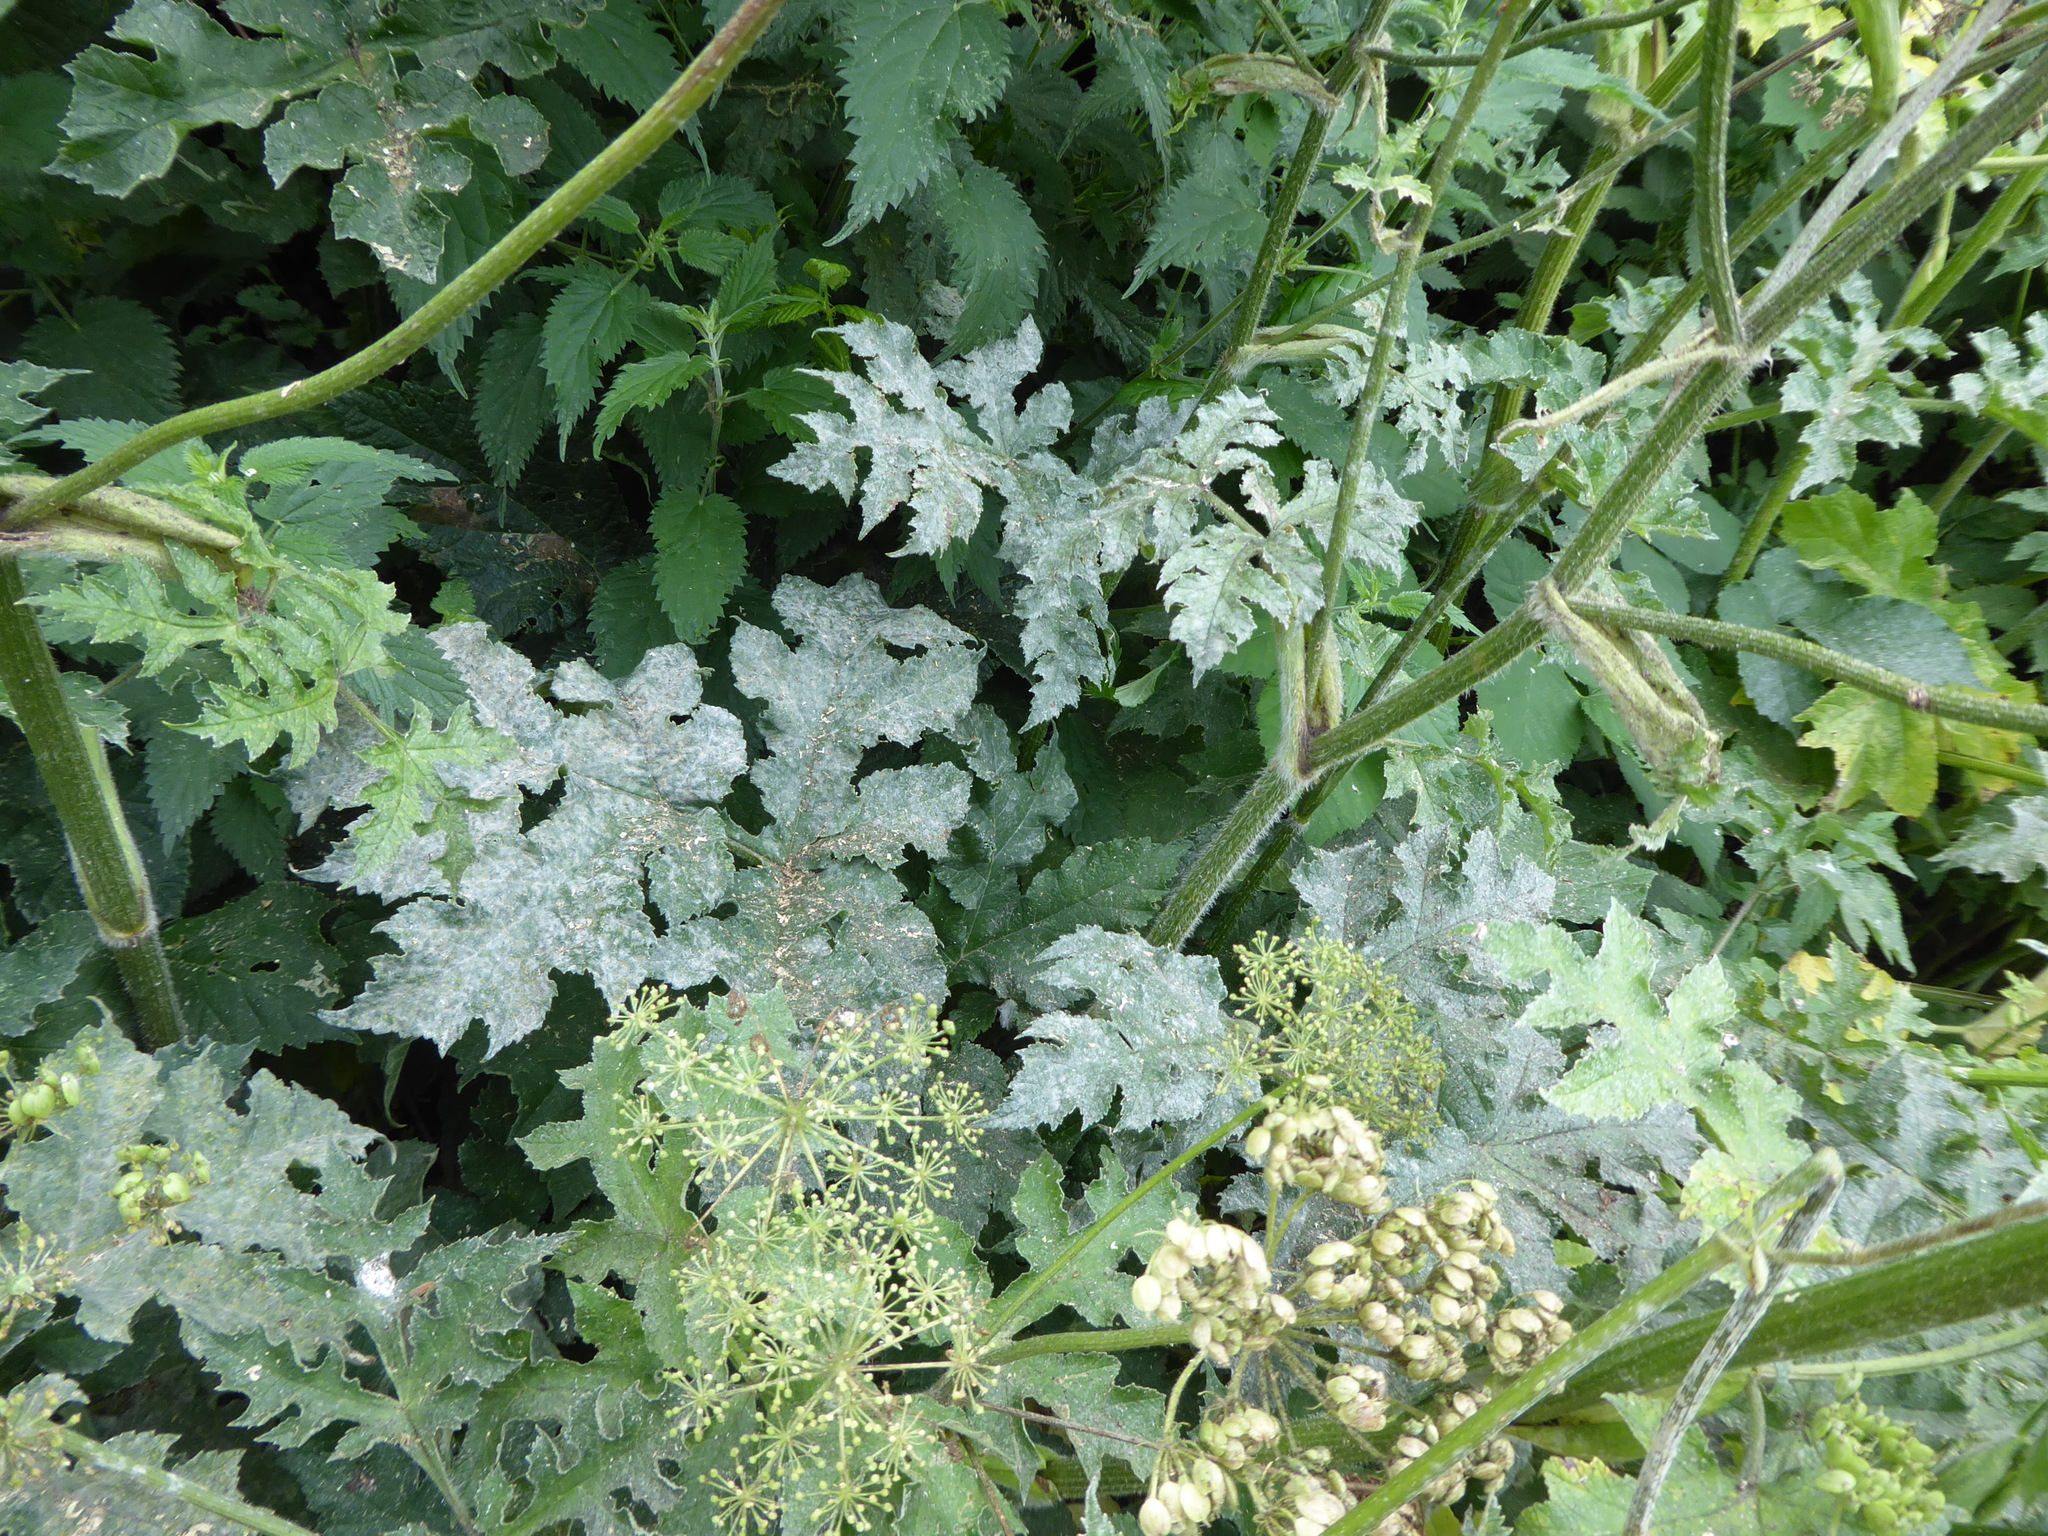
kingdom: Fungi
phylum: Ascomycota
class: Leotiomycetes
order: Helotiales
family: Erysiphaceae
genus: Erysiphe
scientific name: Erysiphe heraclei
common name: Umbellifer mildew
